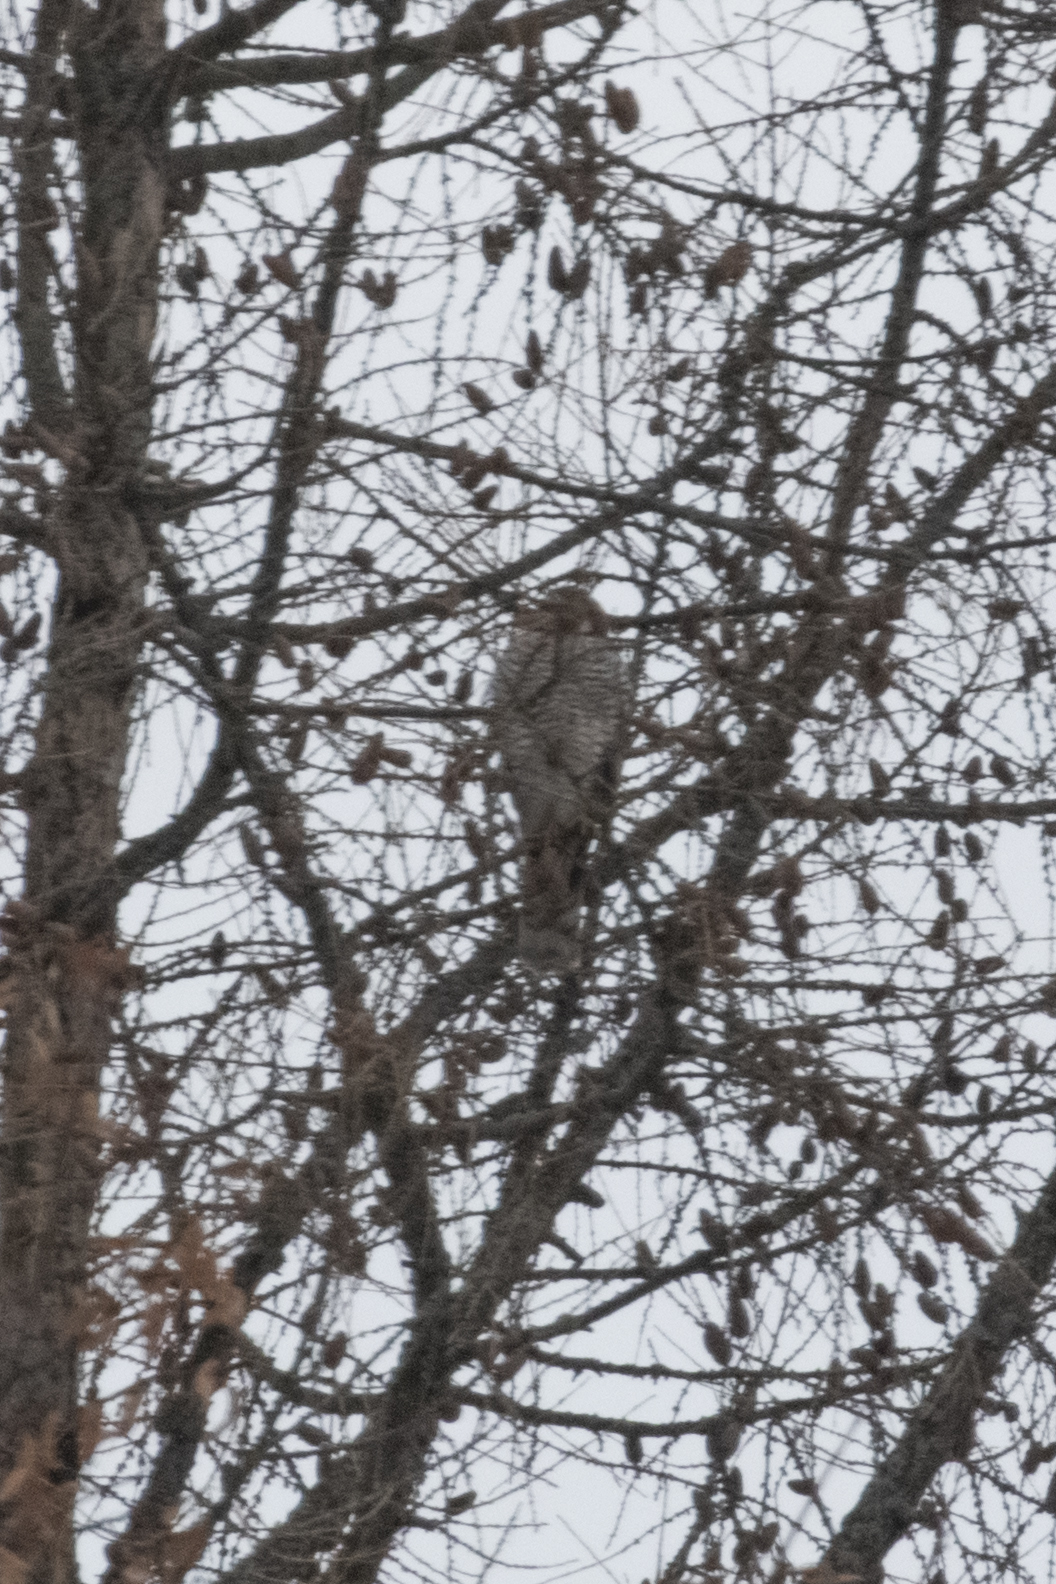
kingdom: Animalia
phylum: Chordata
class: Aves
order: Accipitriformes
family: Accipitridae
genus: Accipiter
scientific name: Accipiter gentilis
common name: Northern goshawk
